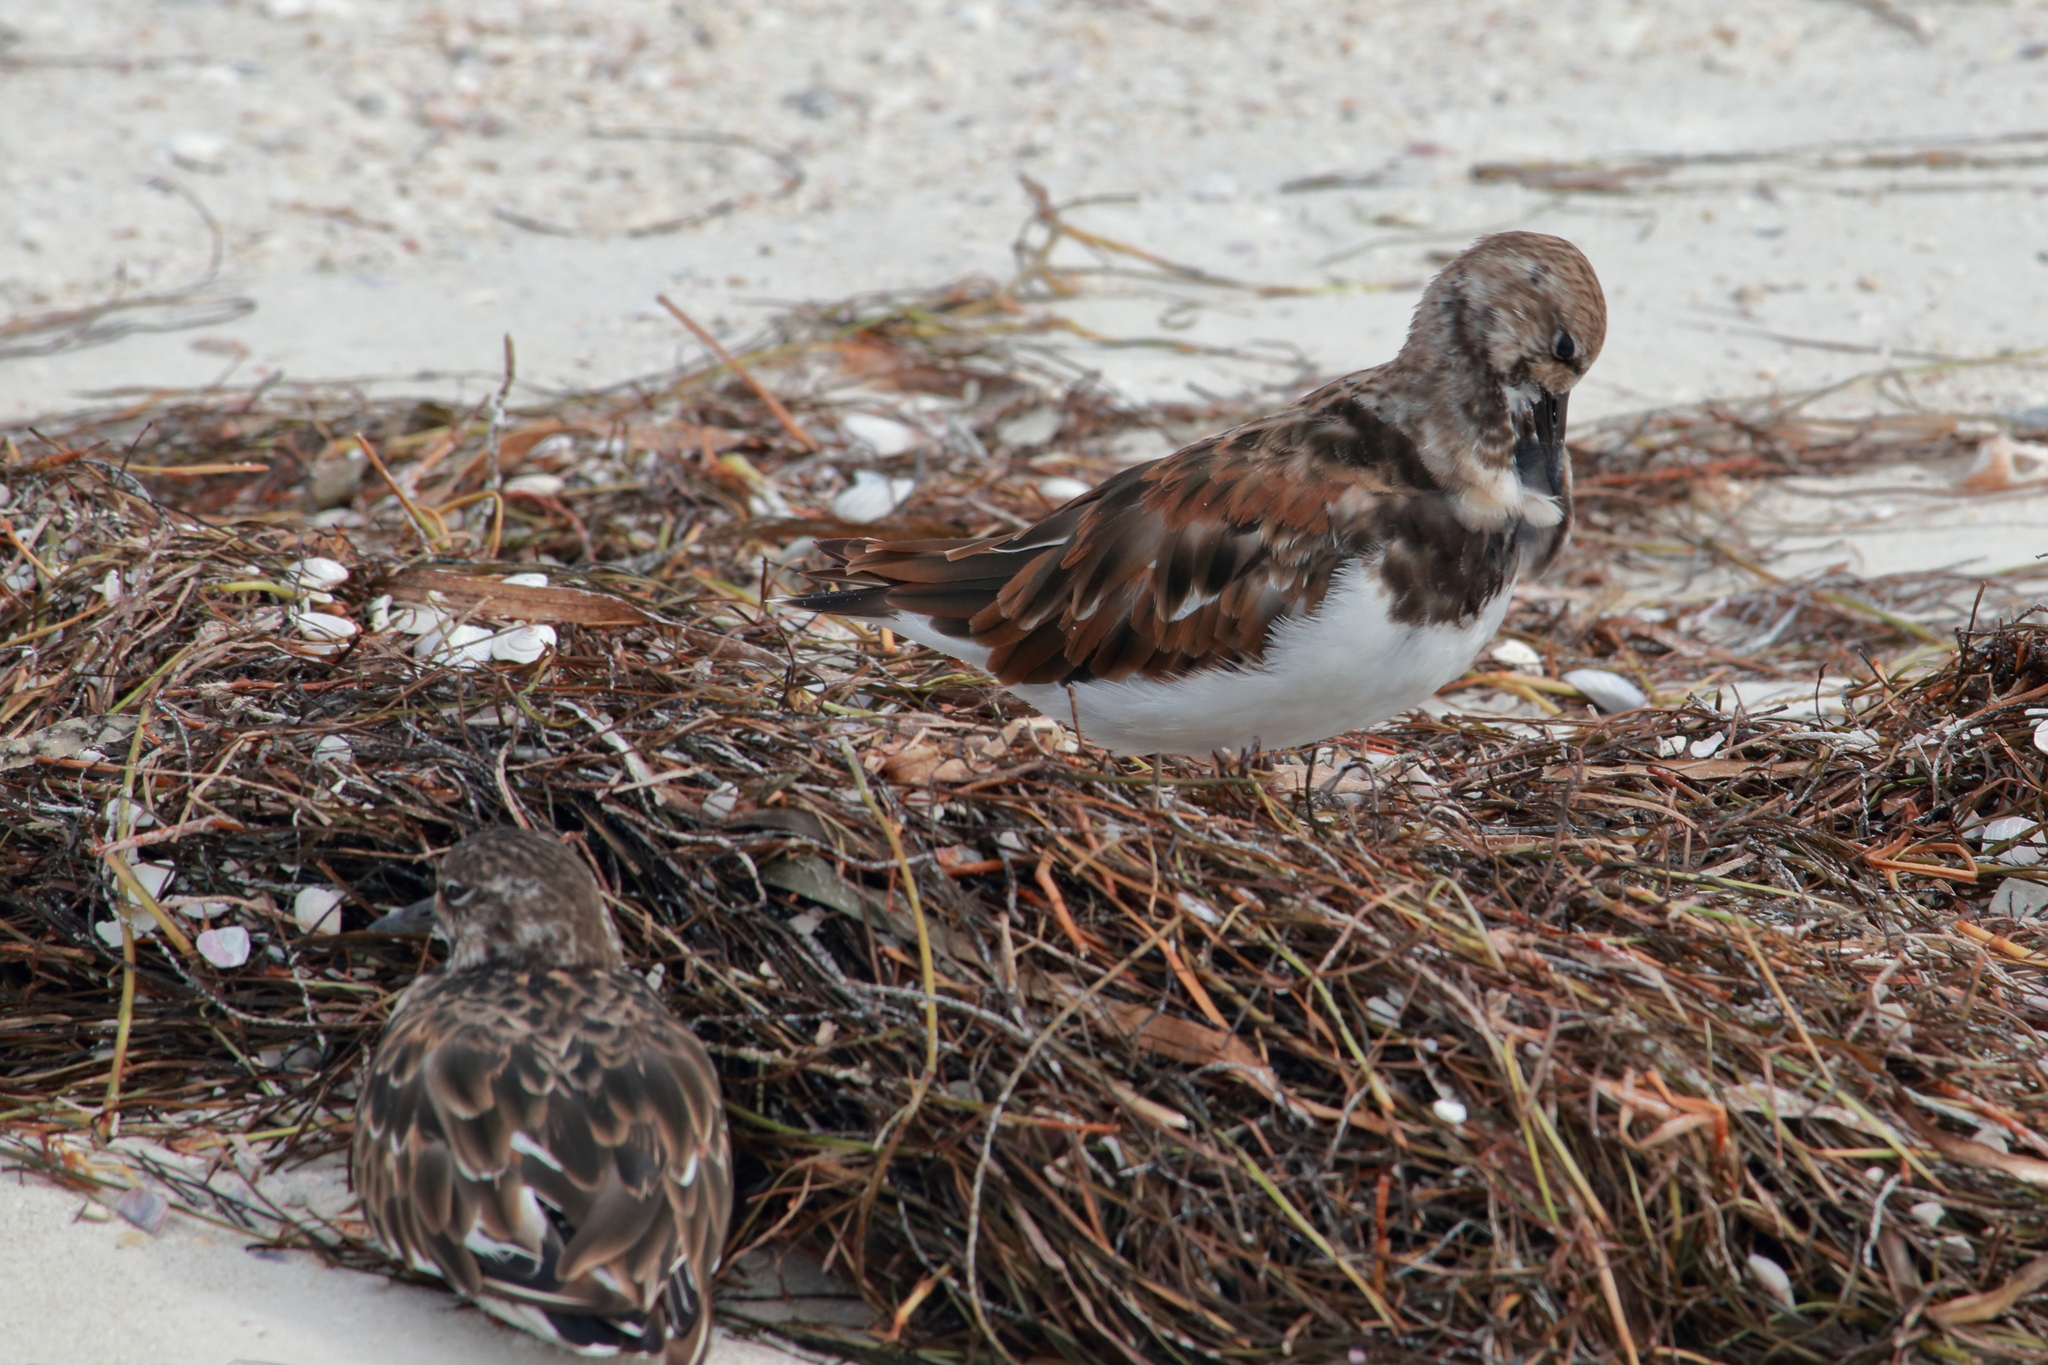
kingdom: Animalia
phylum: Chordata
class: Aves
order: Charadriiformes
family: Scolopacidae
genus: Arenaria
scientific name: Arenaria interpres
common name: Ruddy turnstone
